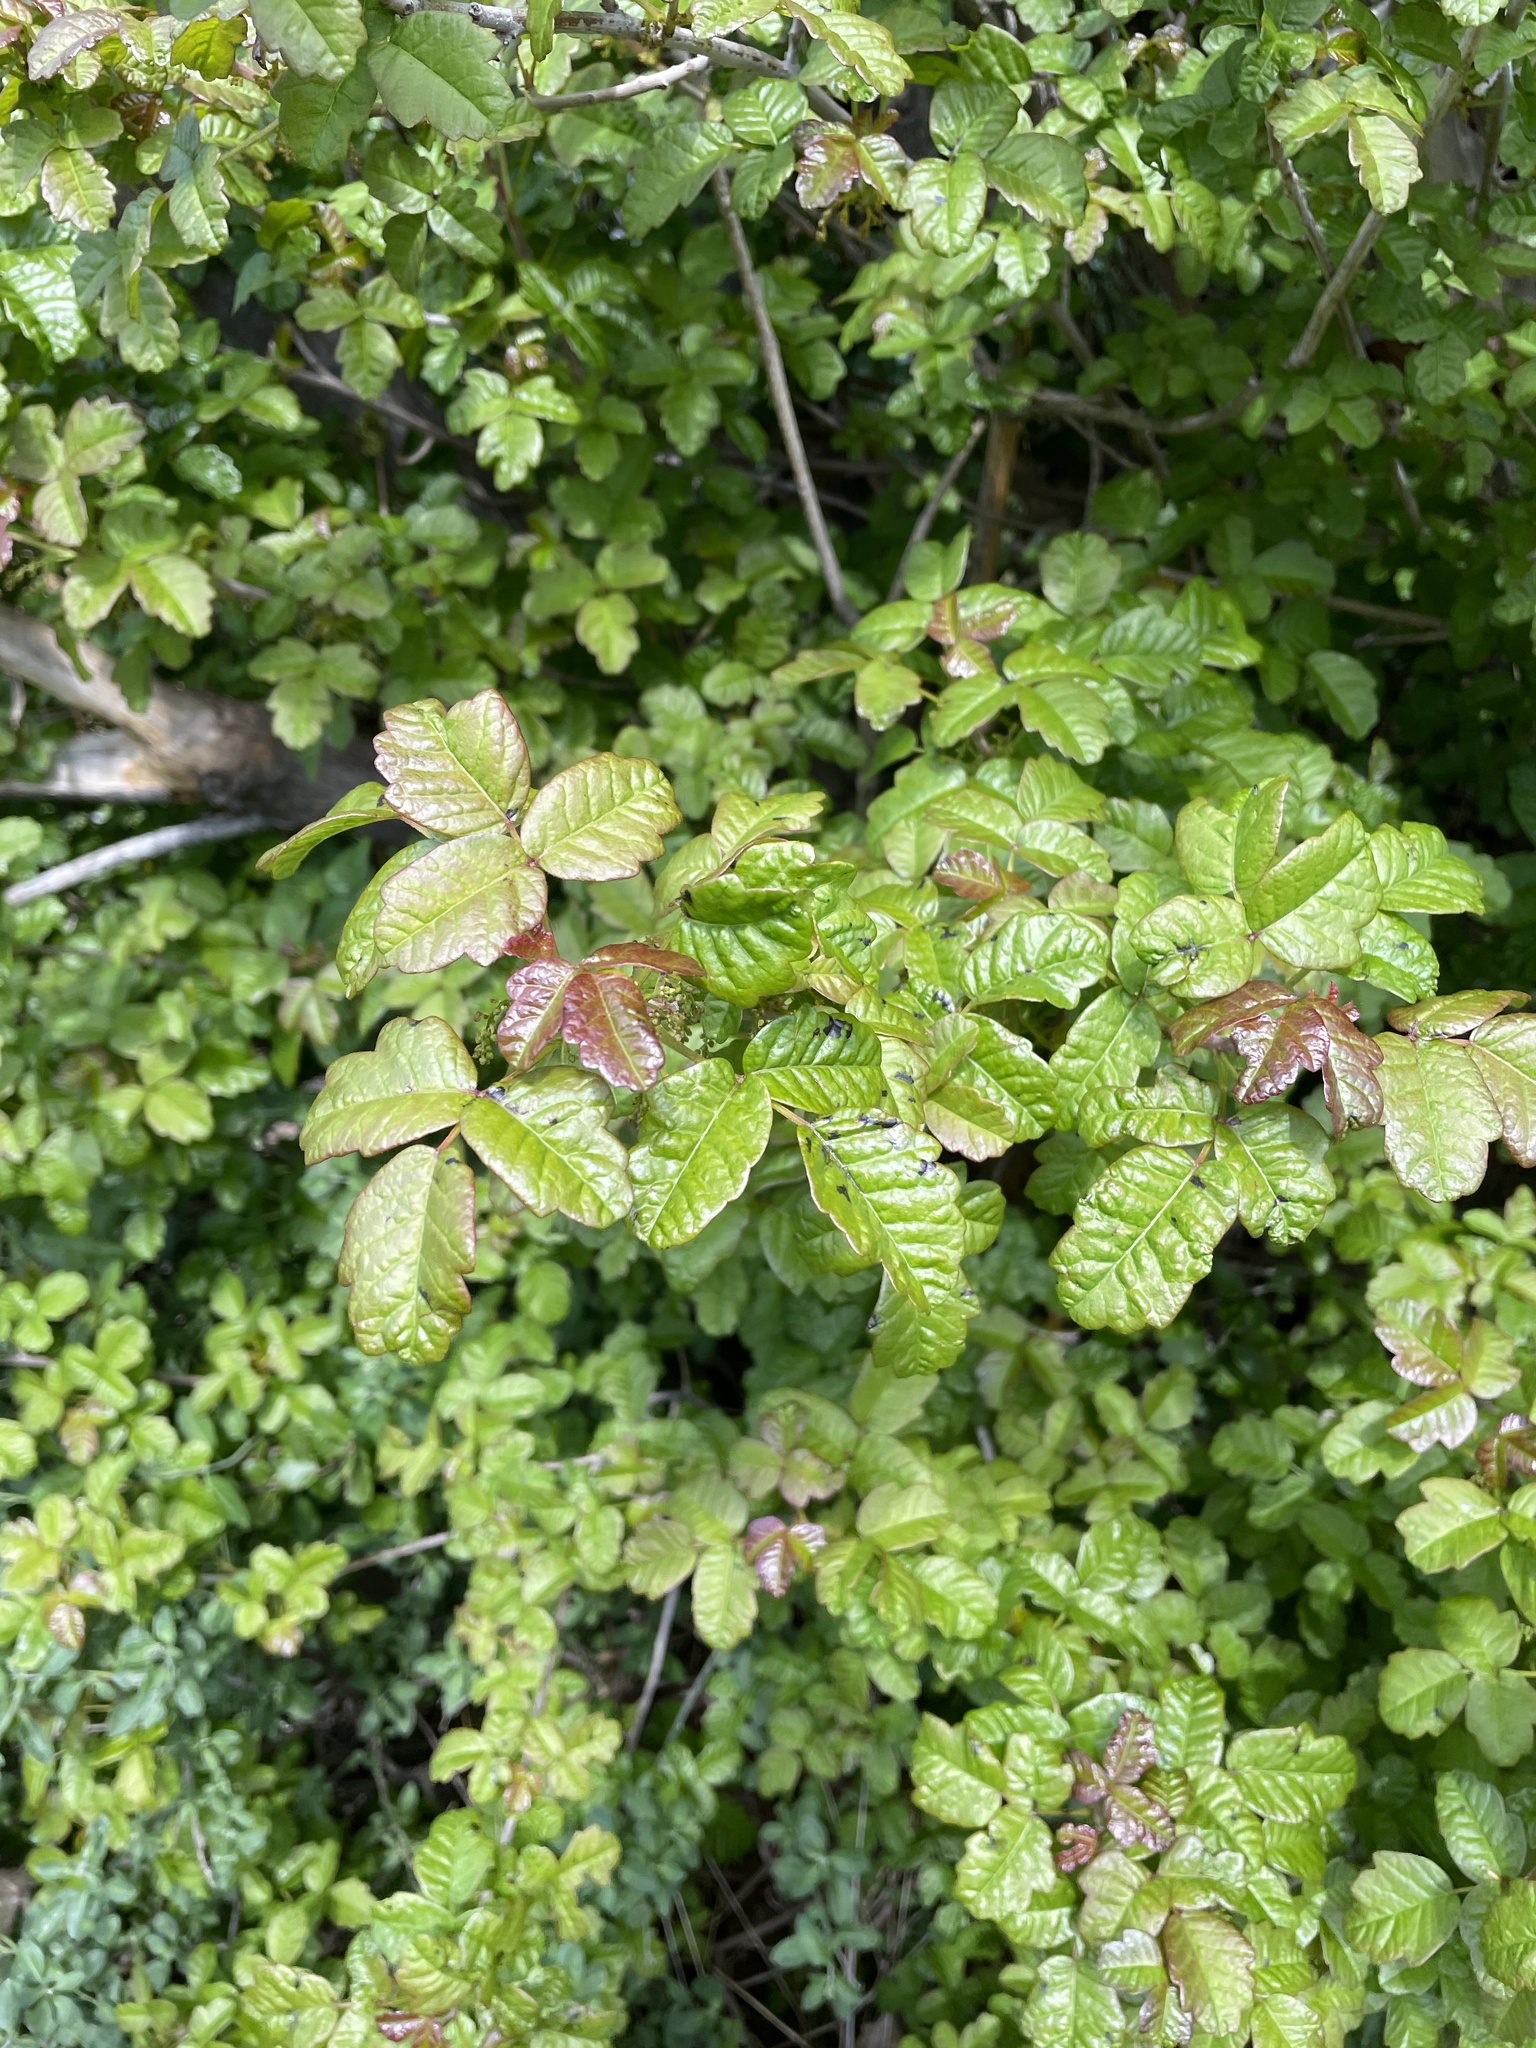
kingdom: Plantae
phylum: Tracheophyta
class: Magnoliopsida
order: Sapindales
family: Anacardiaceae
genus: Toxicodendron
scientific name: Toxicodendron diversilobum
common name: Pacific poison-oak
